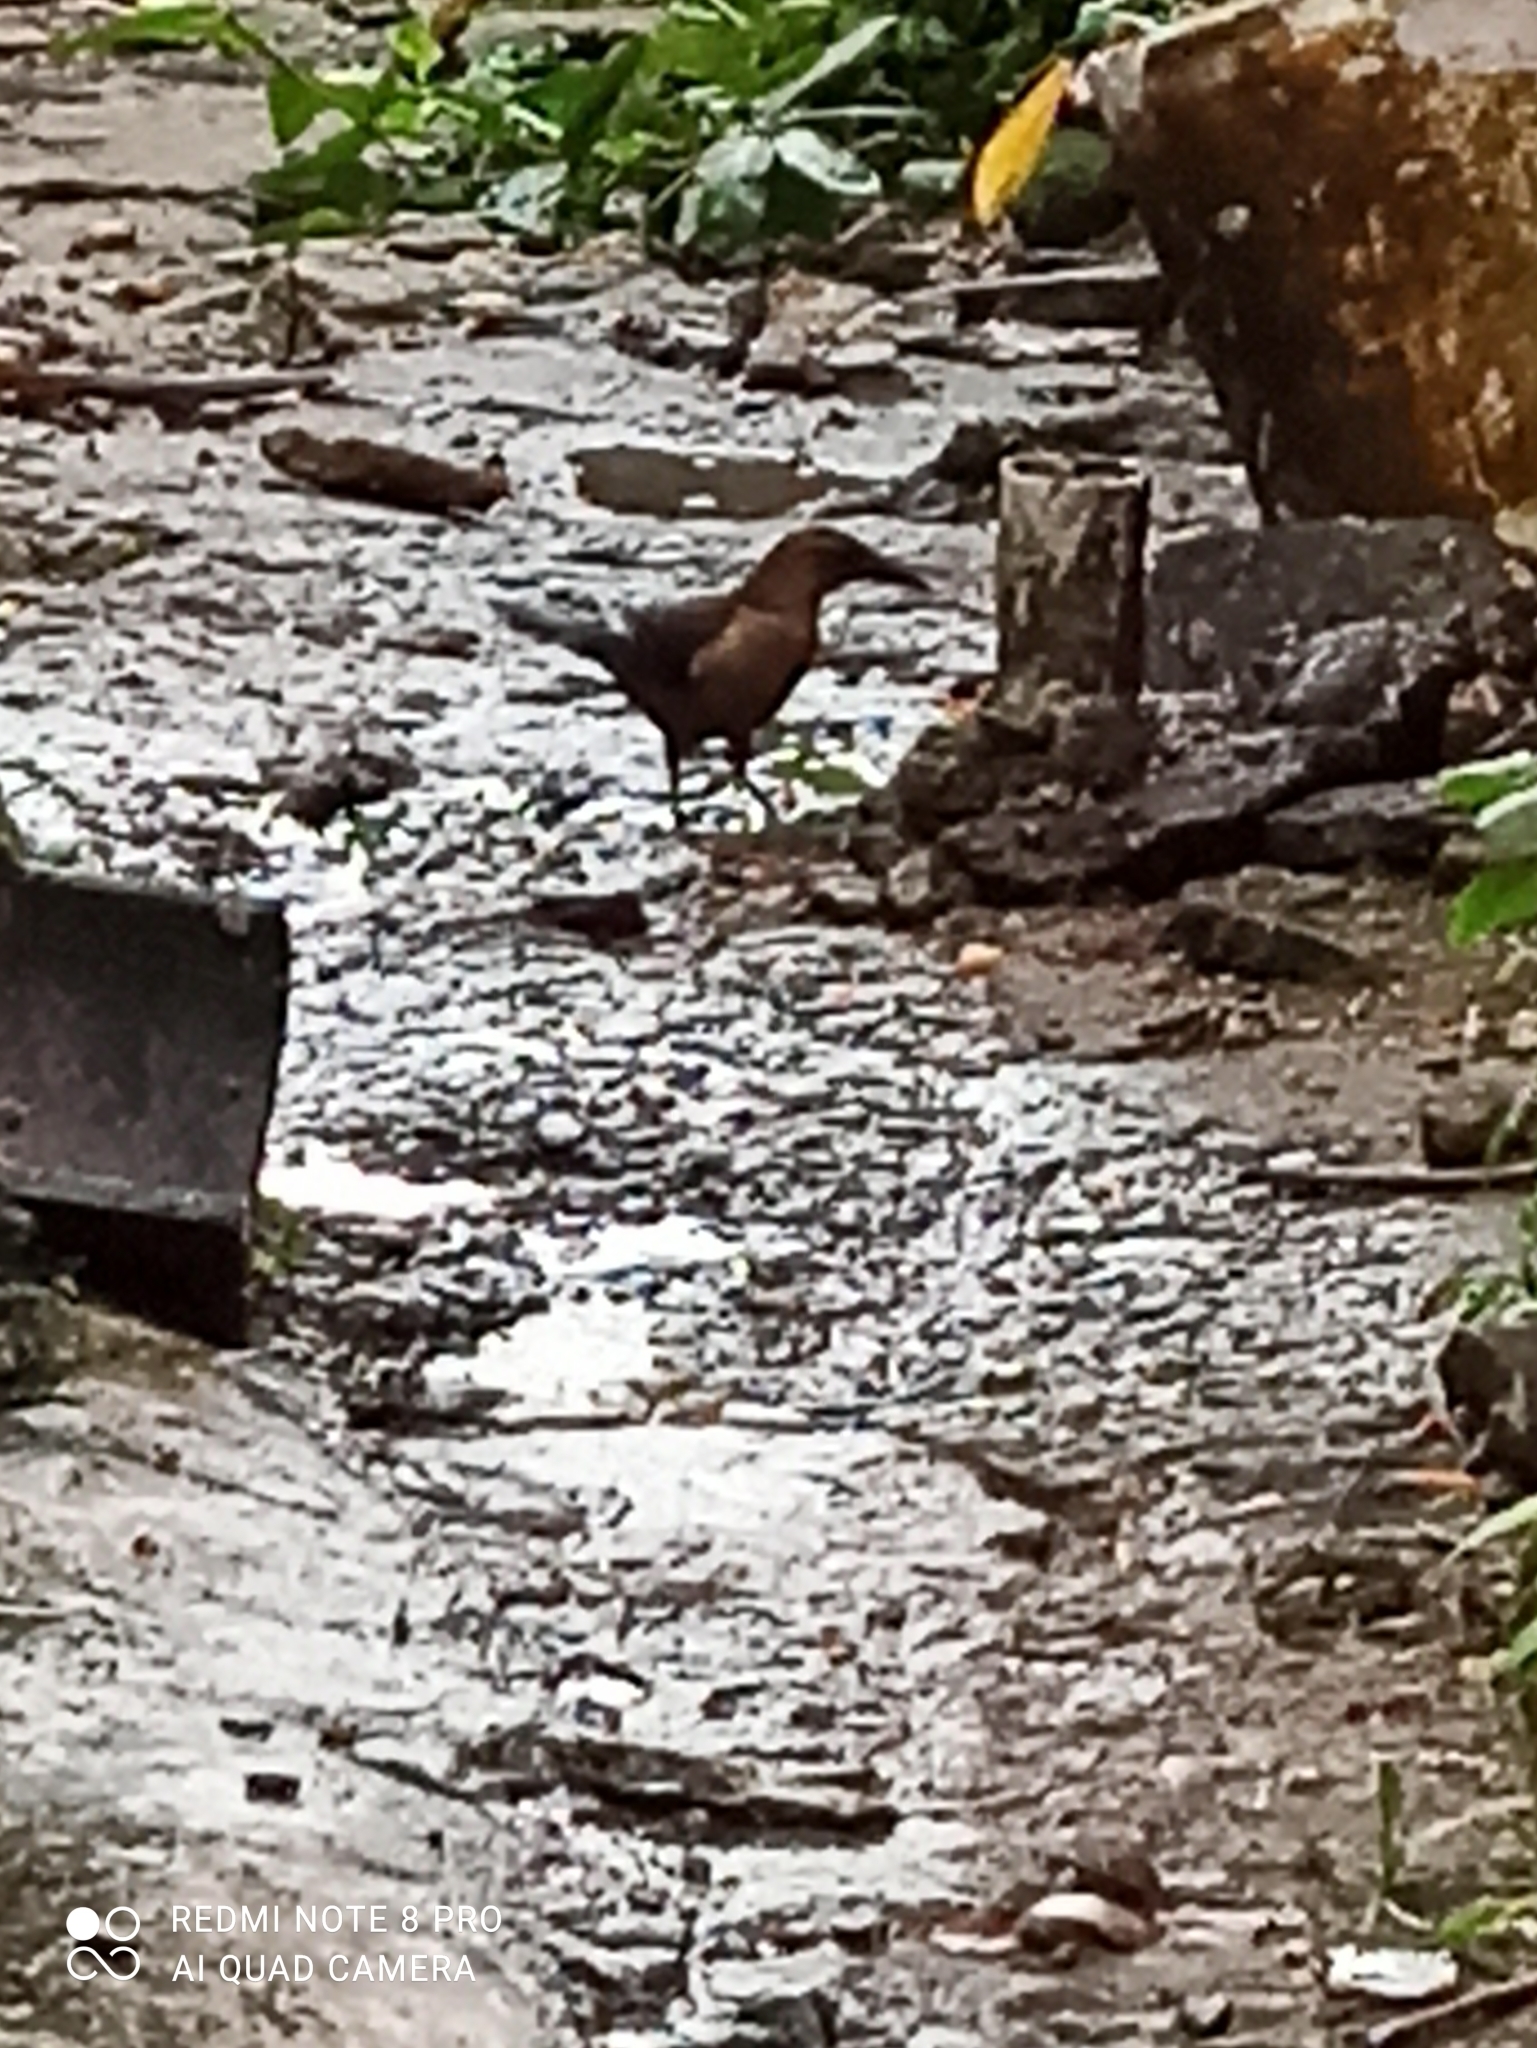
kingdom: Animalia
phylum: Chordata
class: Aves
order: Passeriformes
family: Icteridae
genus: Quiscalus
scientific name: Quiscalus mexicanus
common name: Great-tailed grackle
